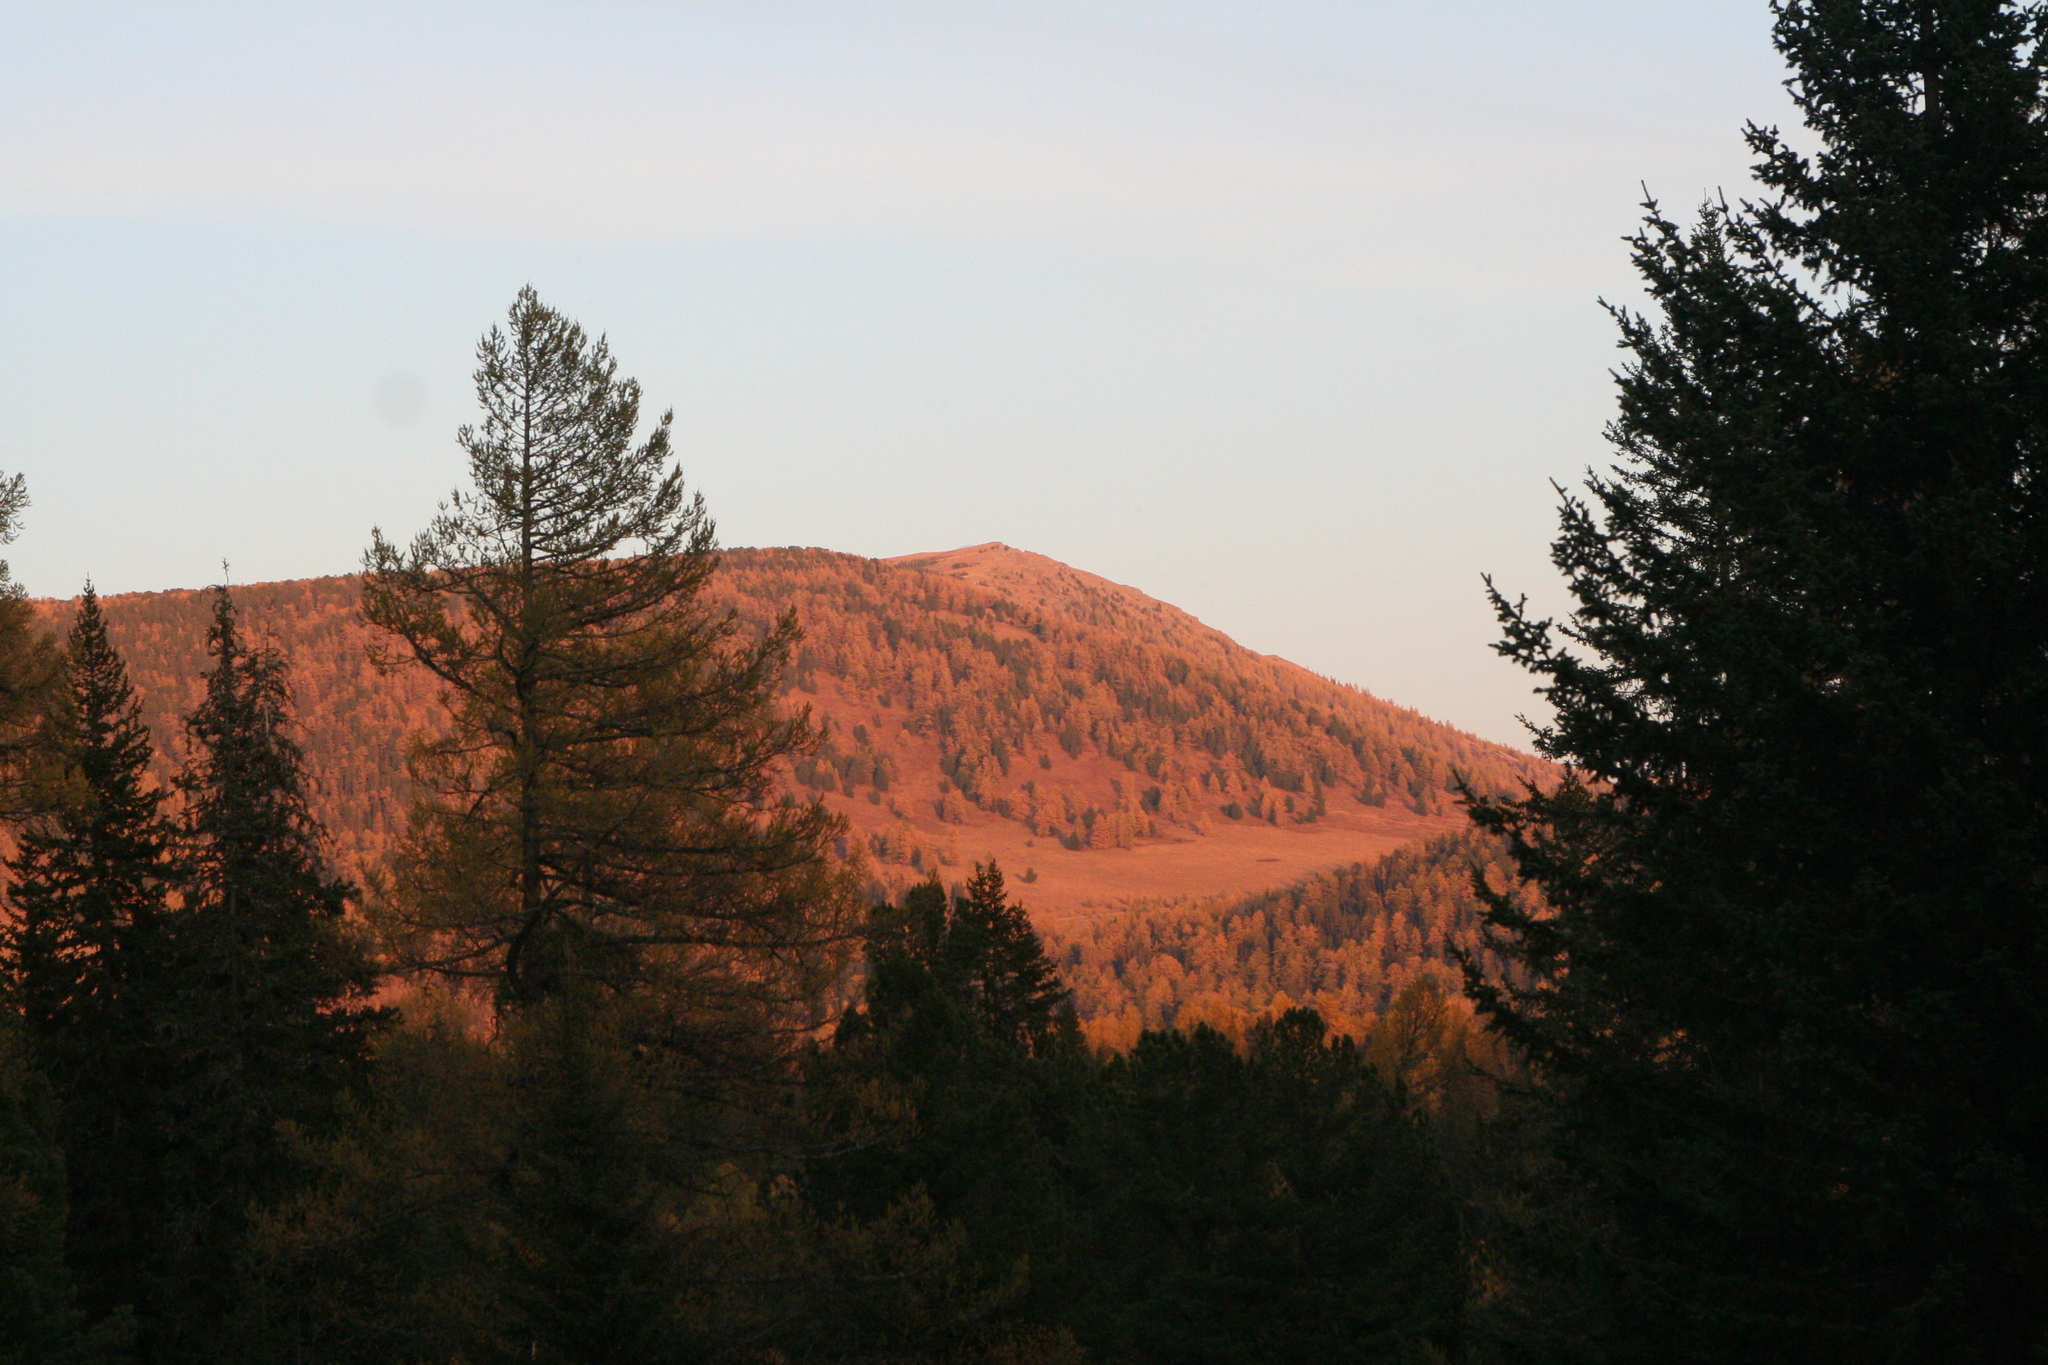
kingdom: Plantae
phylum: Tracheophyta
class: Pinopsida
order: Pinales
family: Pinaceae
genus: Larix
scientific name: Larix sibirica
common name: Siberian larch
